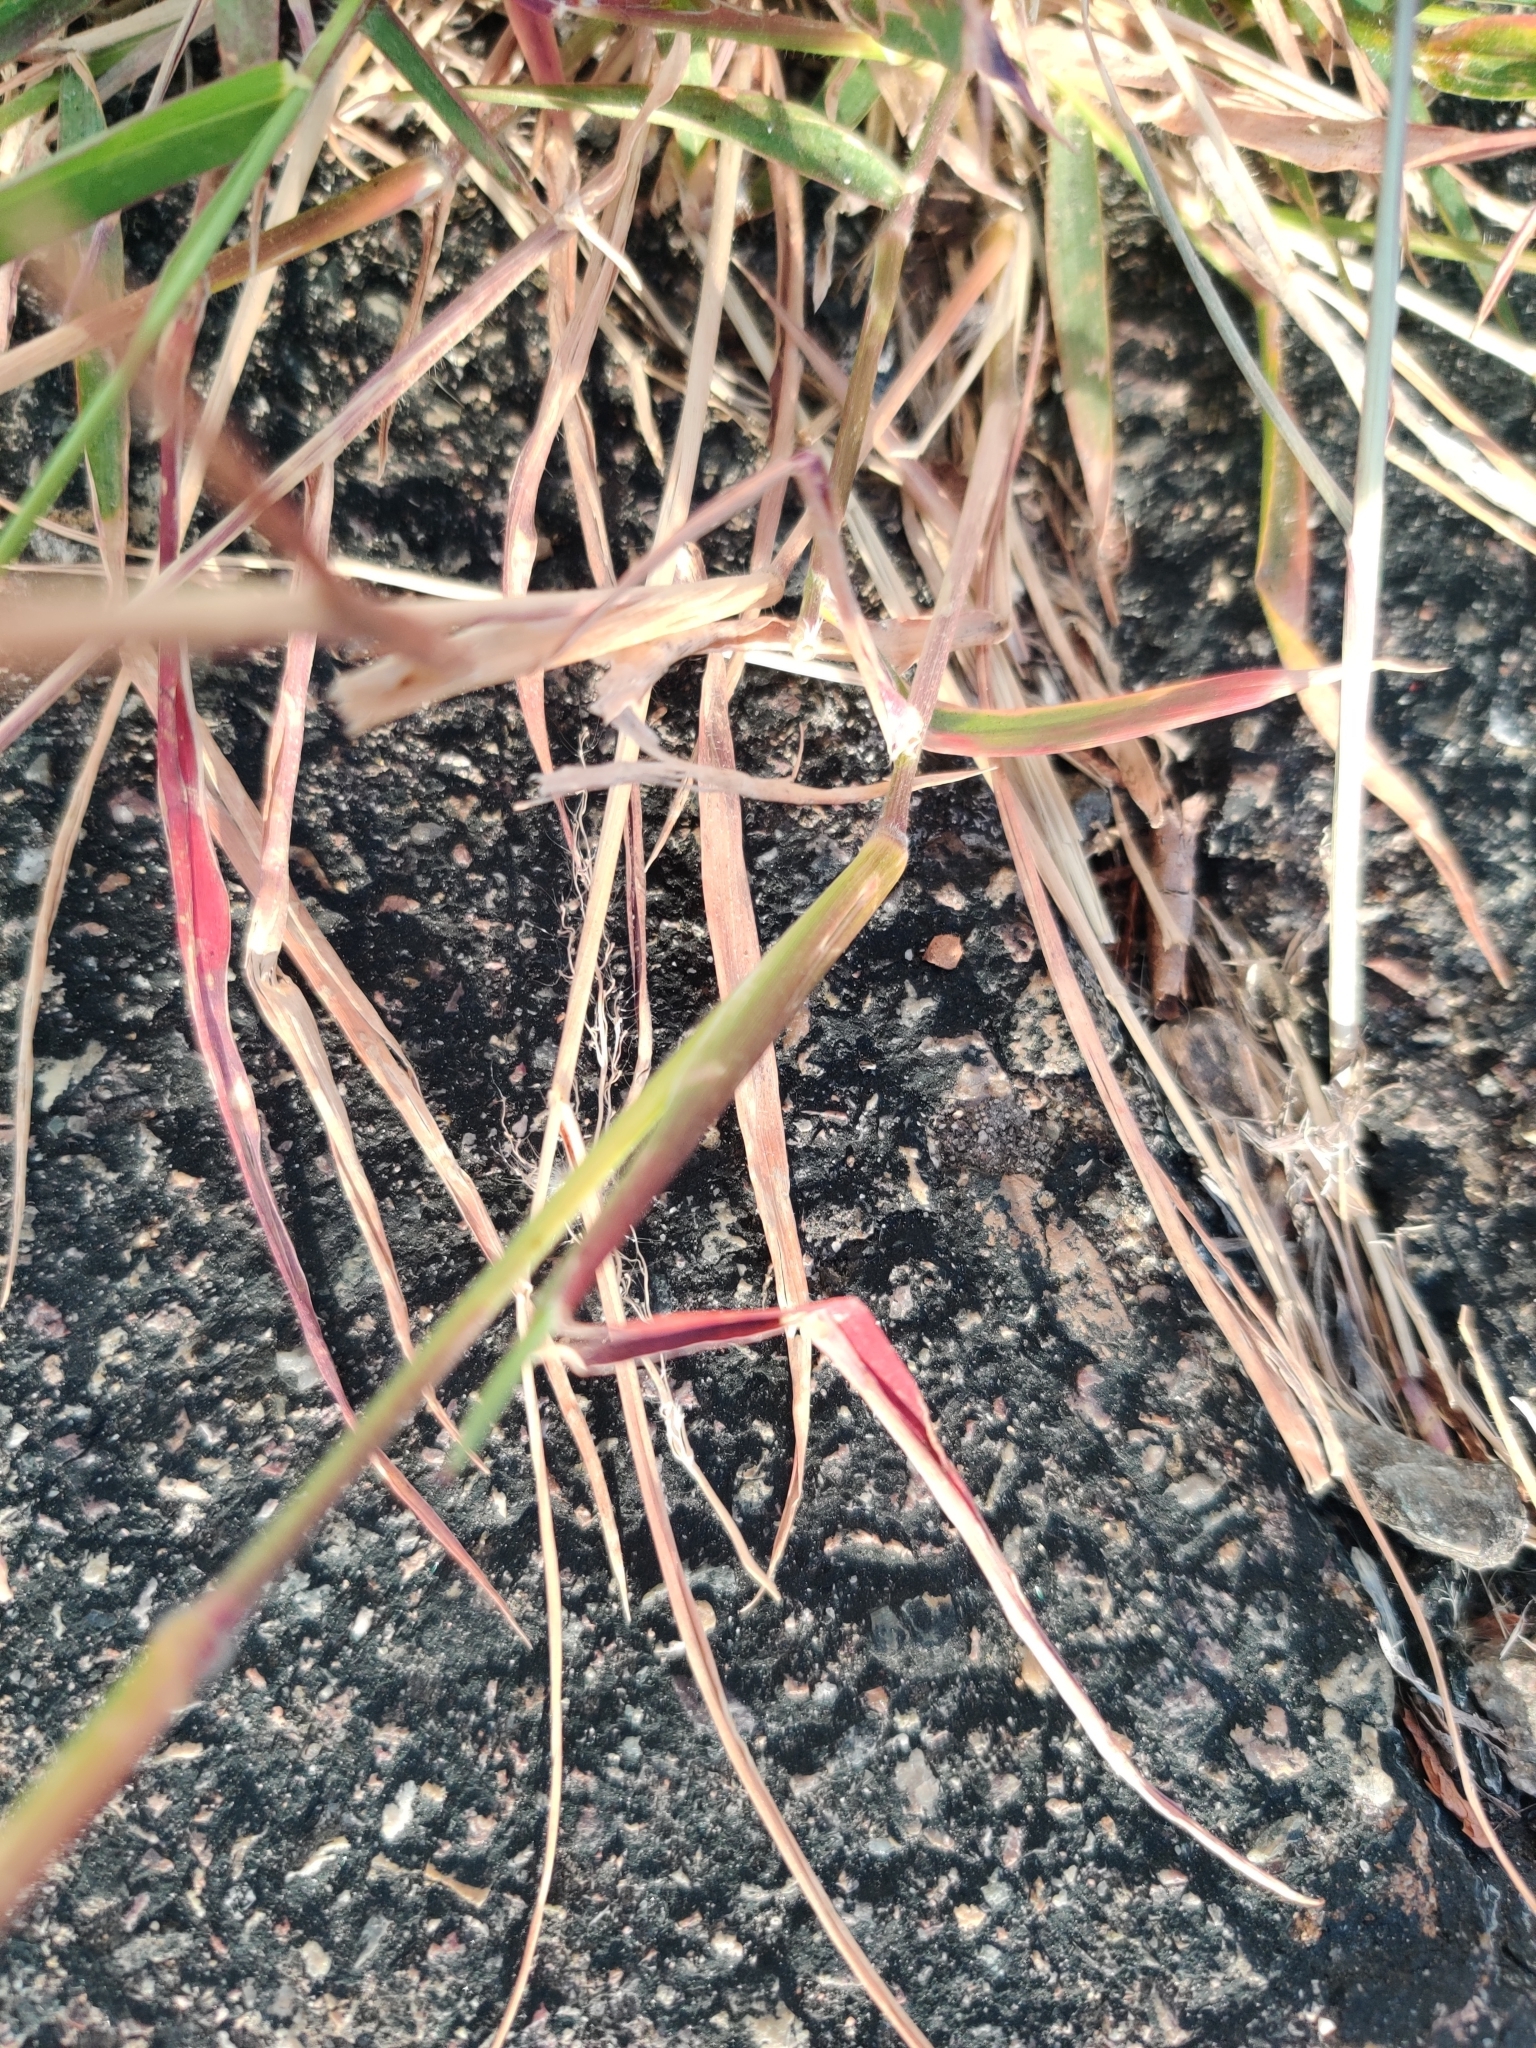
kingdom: Plantae
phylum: Tracheophyta
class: Liliopsida
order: Poales
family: Poaceae
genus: Melinis
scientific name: Melinis repens
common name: Rose natal grass
